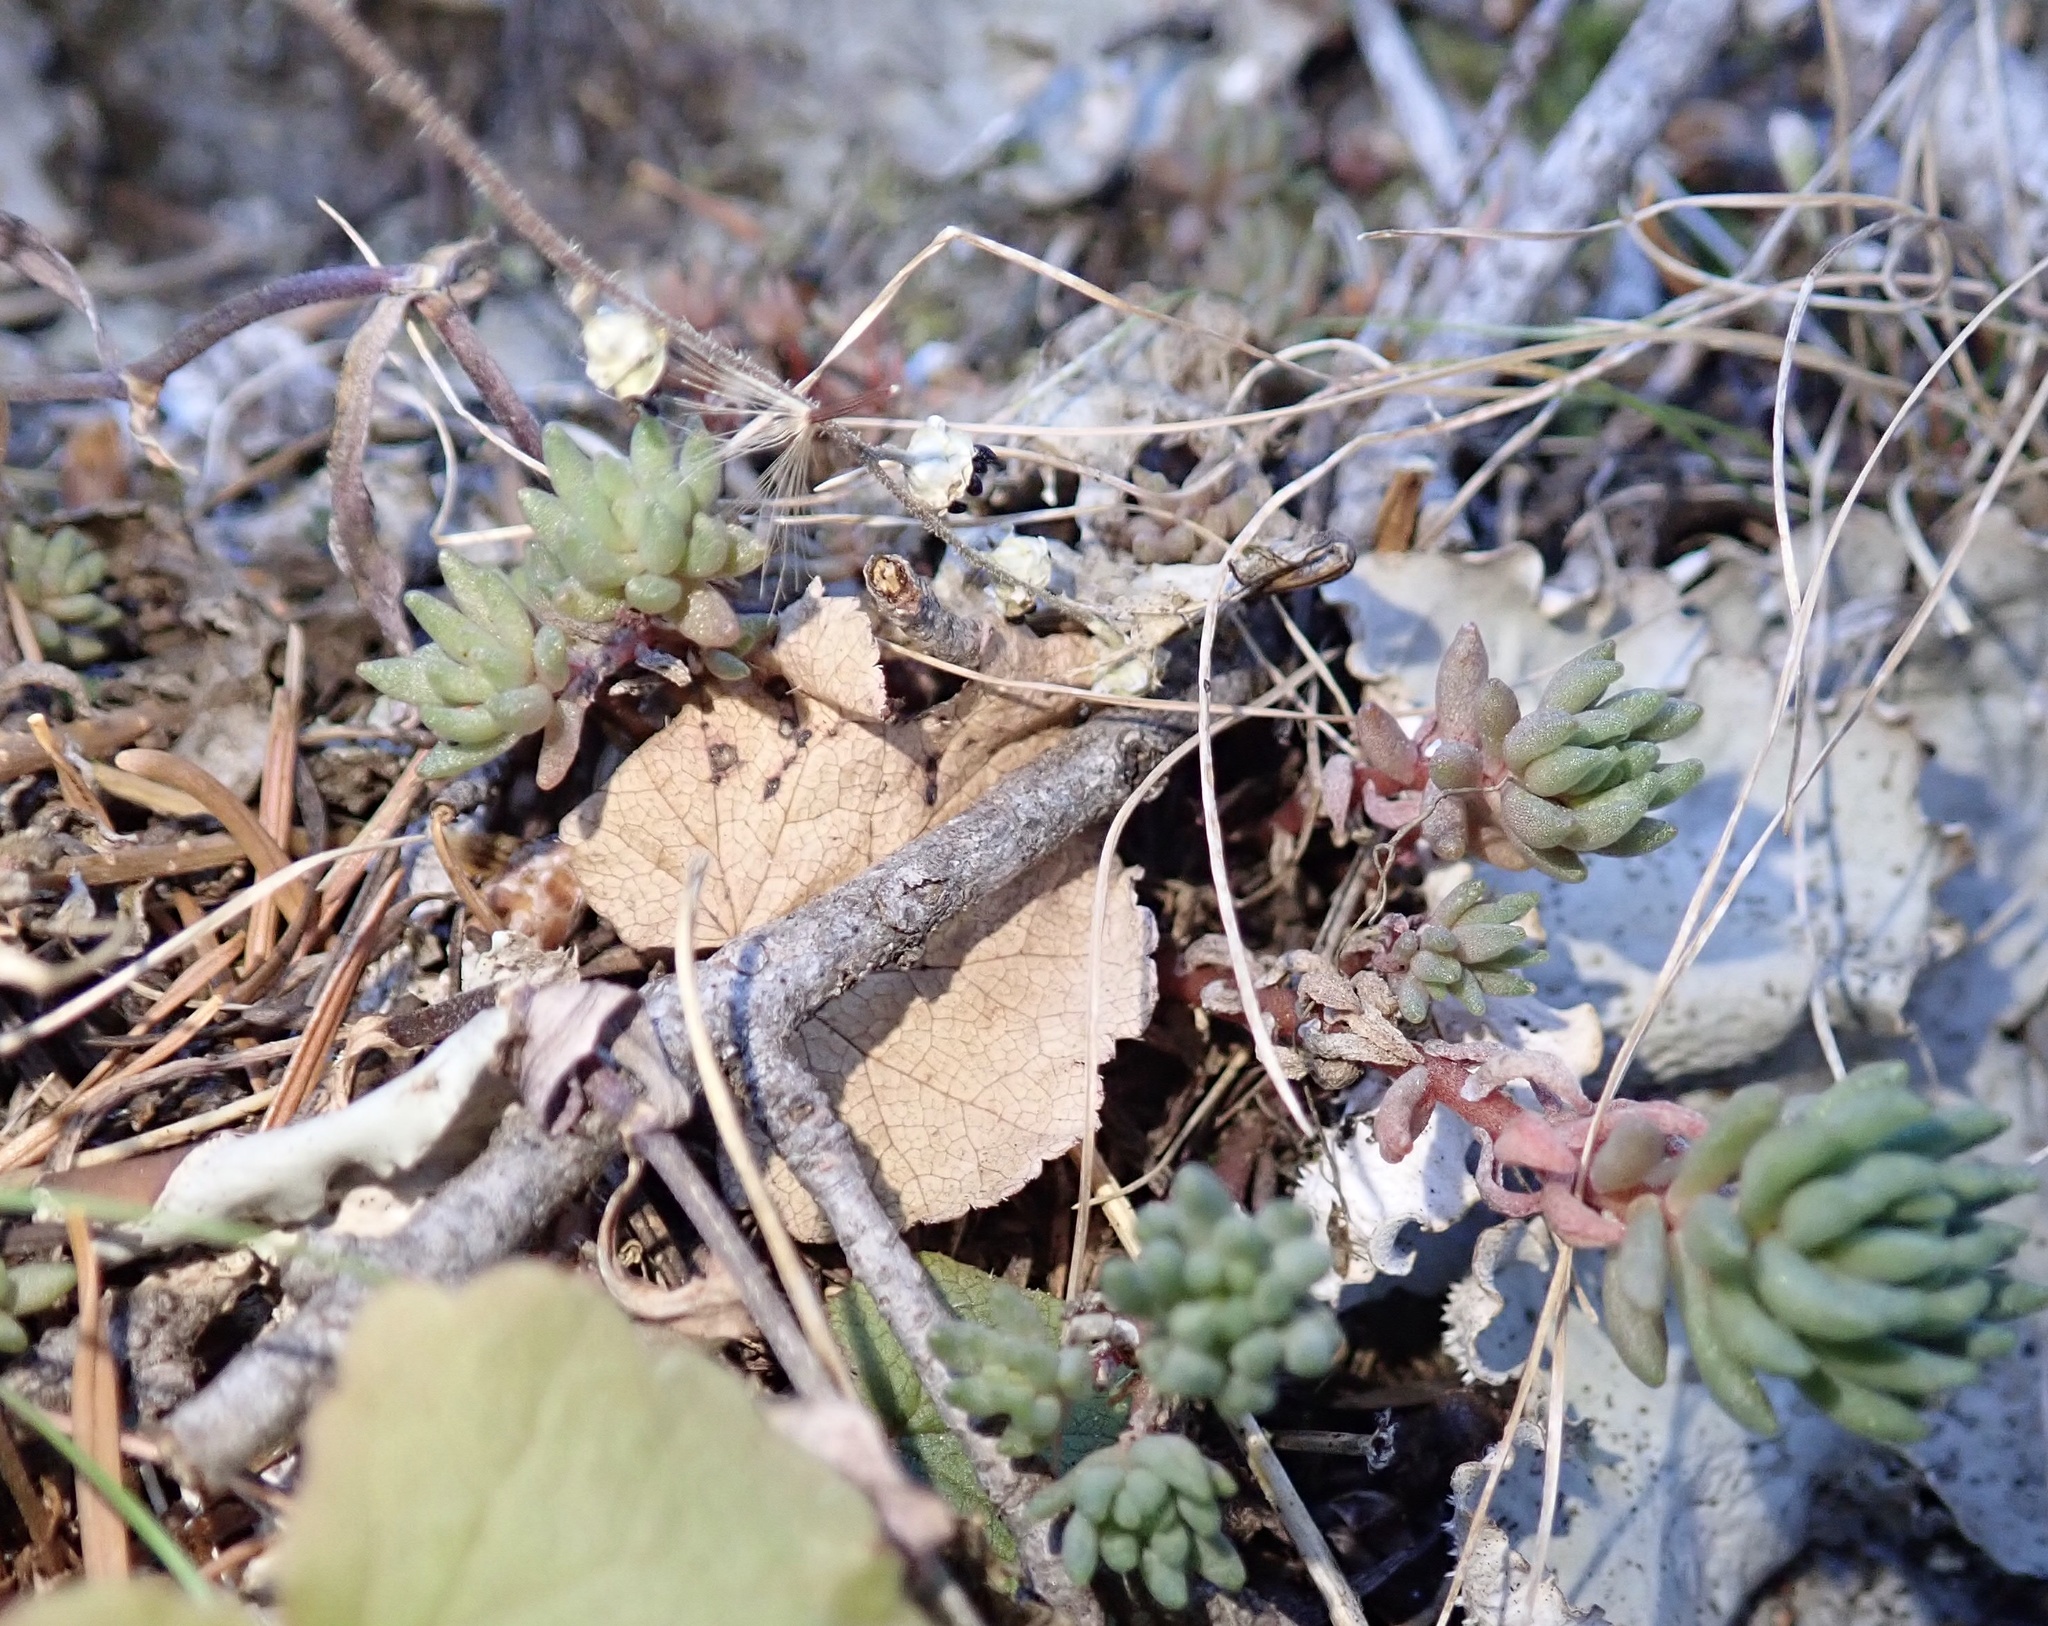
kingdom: Plantae
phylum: Tracheophyta
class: Magnoliopsida
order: Saxifragales
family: Crassulaceae
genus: Sedum
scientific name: Sedum lanceolatum
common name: Common stonecrop
